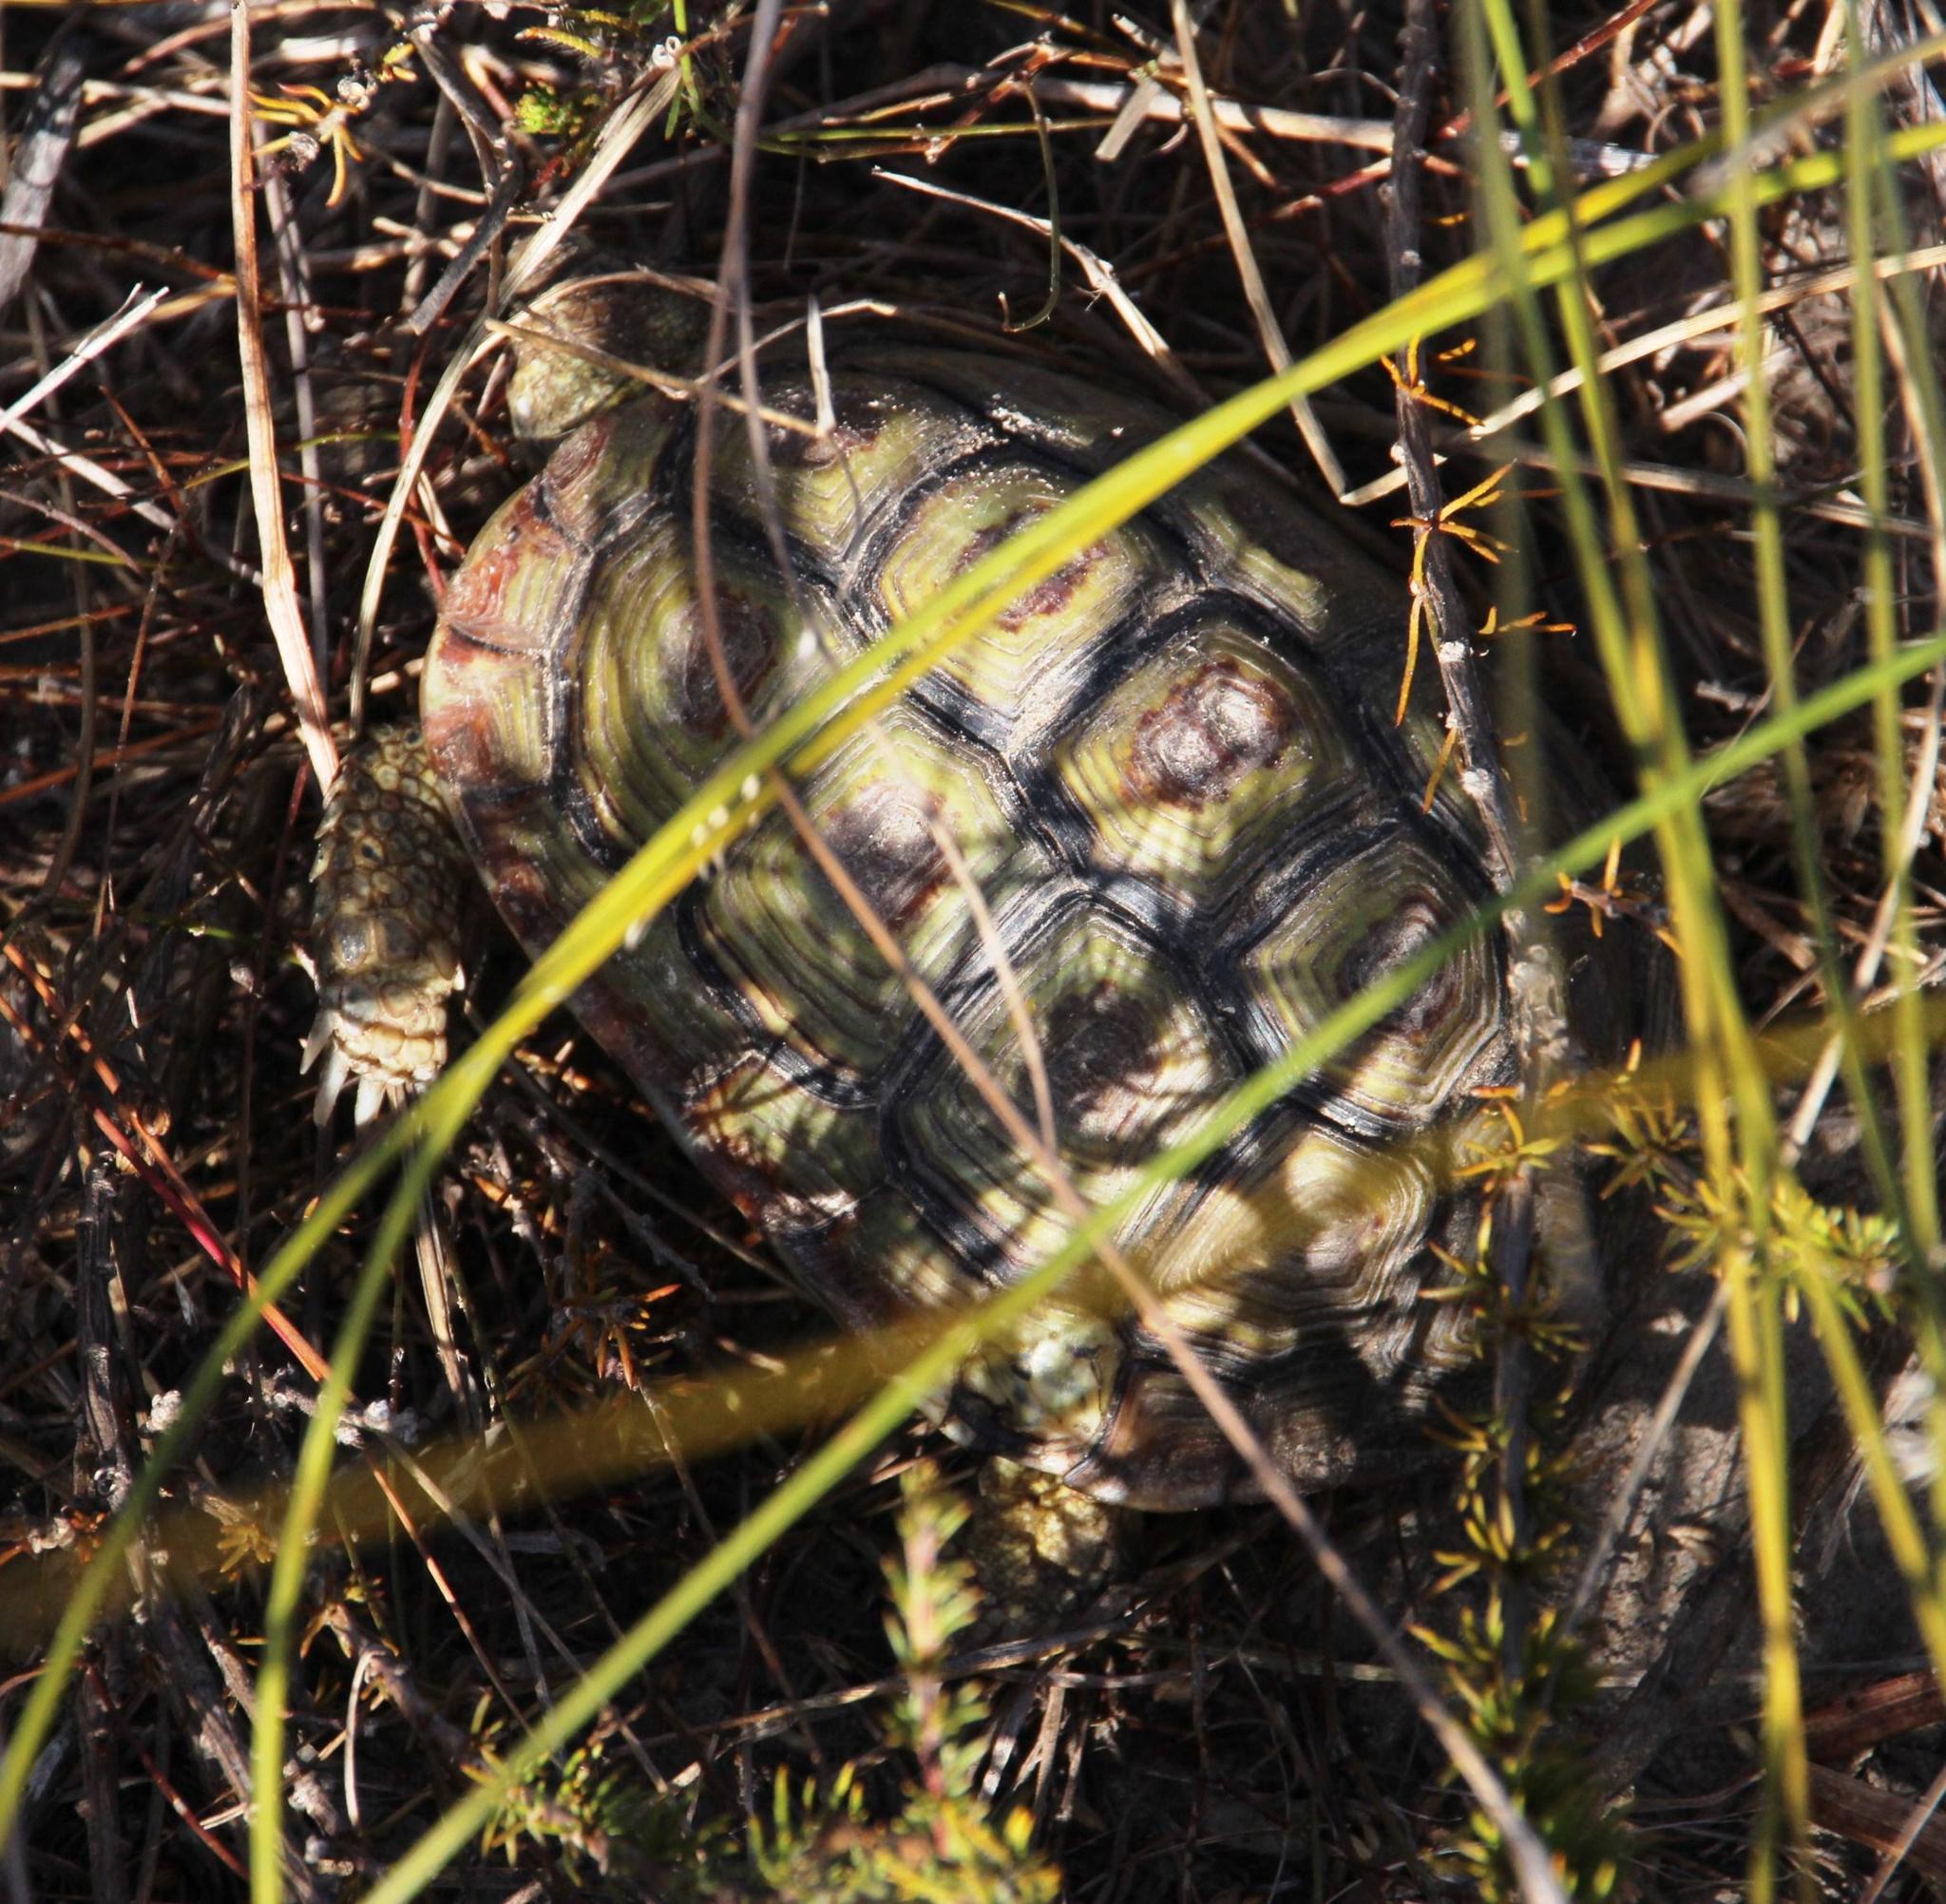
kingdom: Animalia
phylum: Chordata
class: Testudines
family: Testudinidae
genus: Homopus
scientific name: Homopus areolatus
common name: Parrot-beaked tortoise
